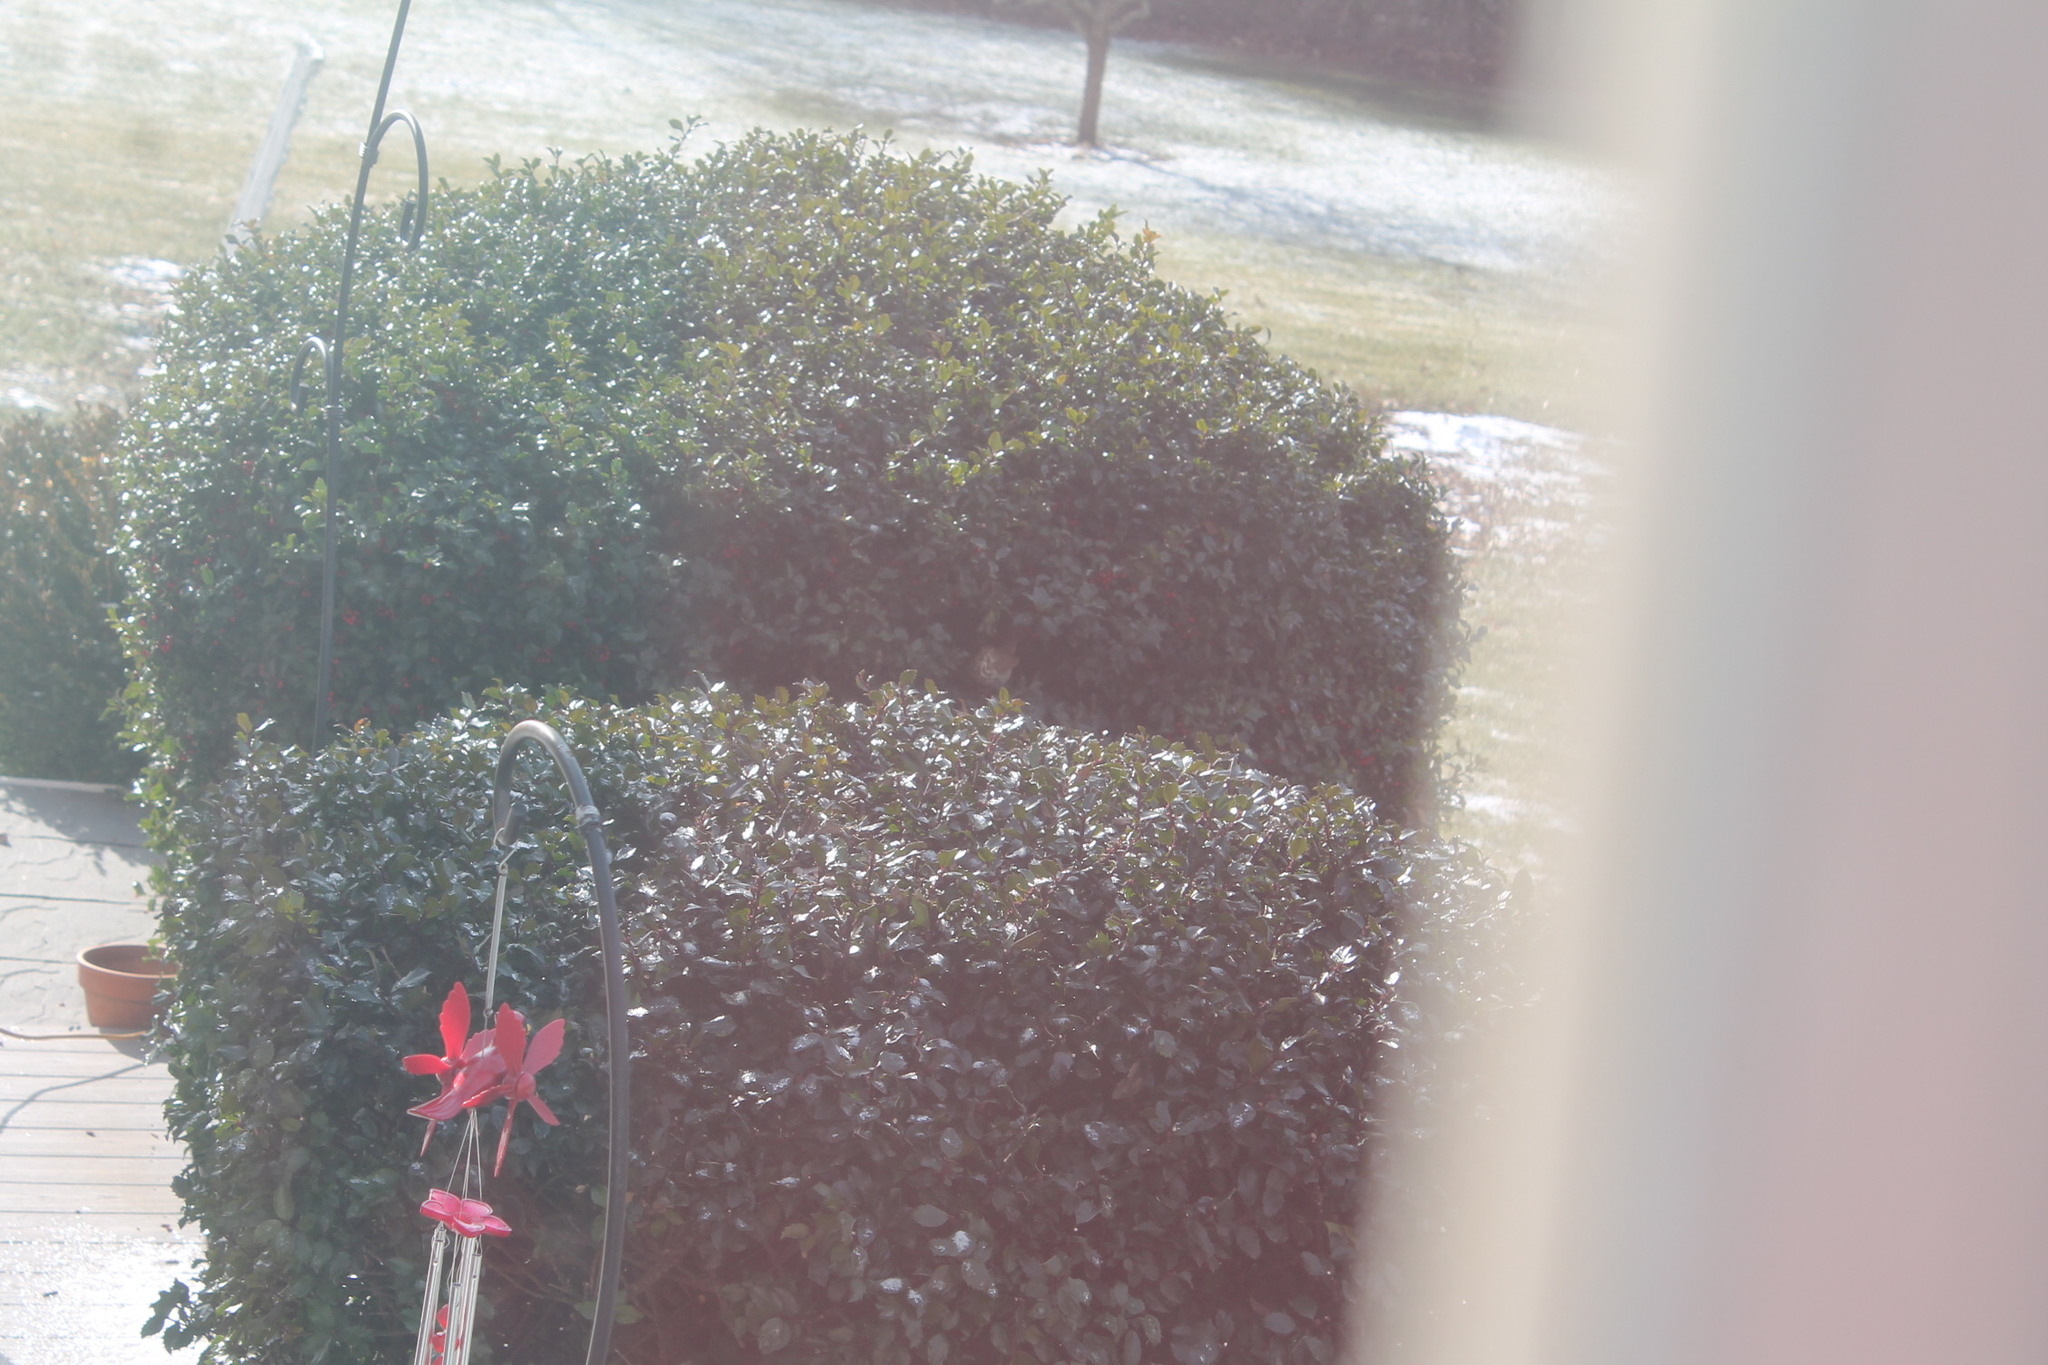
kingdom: Animalia
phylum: Chordata
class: Aves
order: Passeriformes
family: Turdidae
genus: Catharus
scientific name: Catharus guttatus
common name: Hermit thrush
